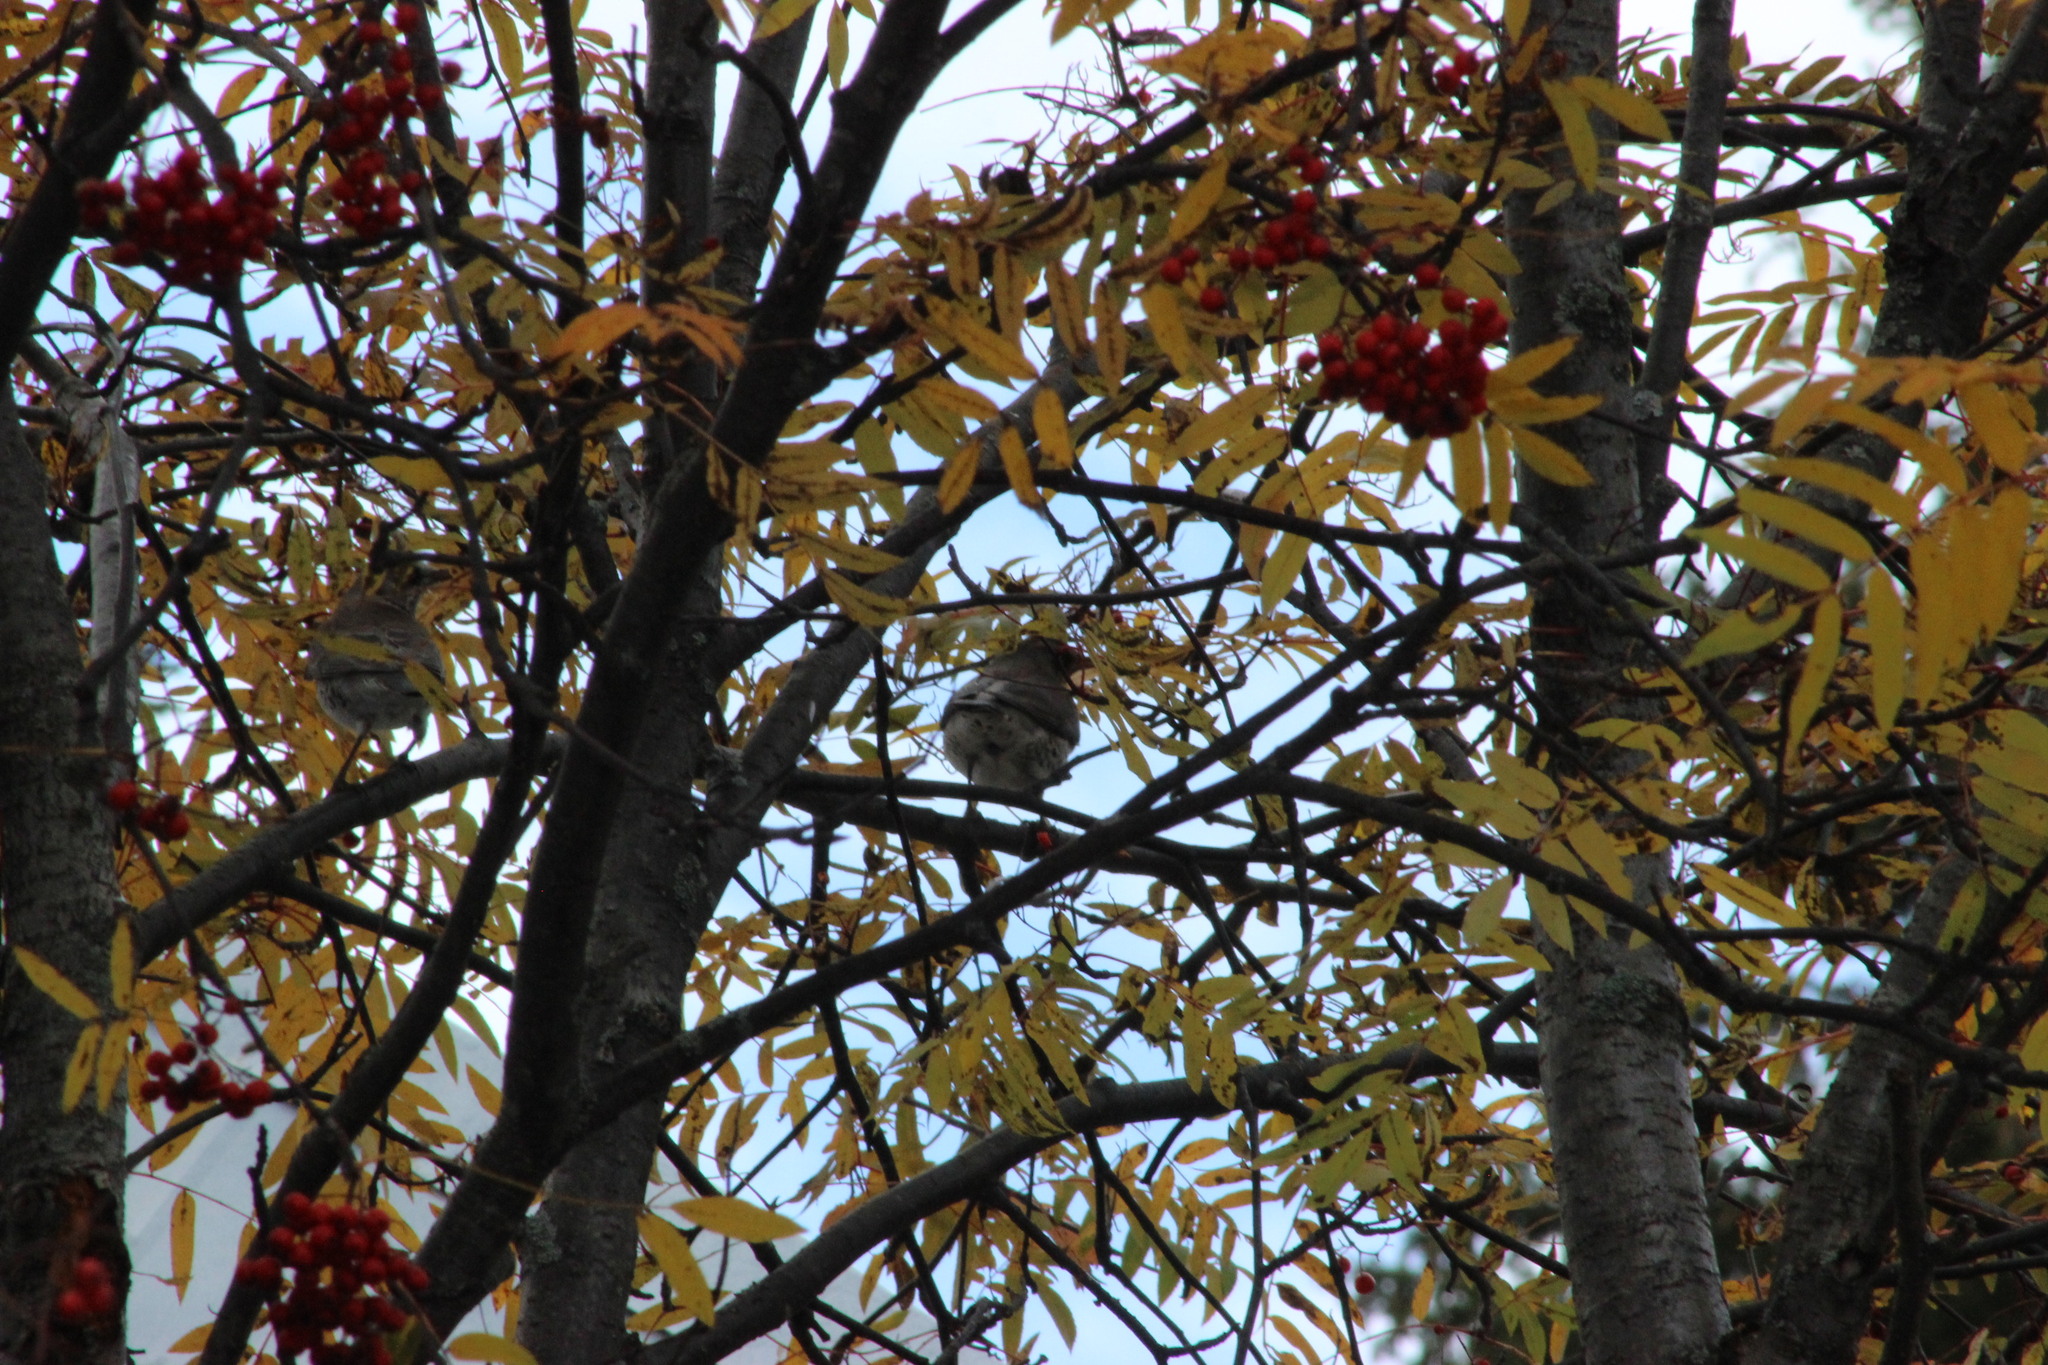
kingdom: Animalia
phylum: Chordata
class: Aves
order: Passeriformes
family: Turdidae
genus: Turdus
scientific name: Turdus pilaris
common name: Fieldfare
